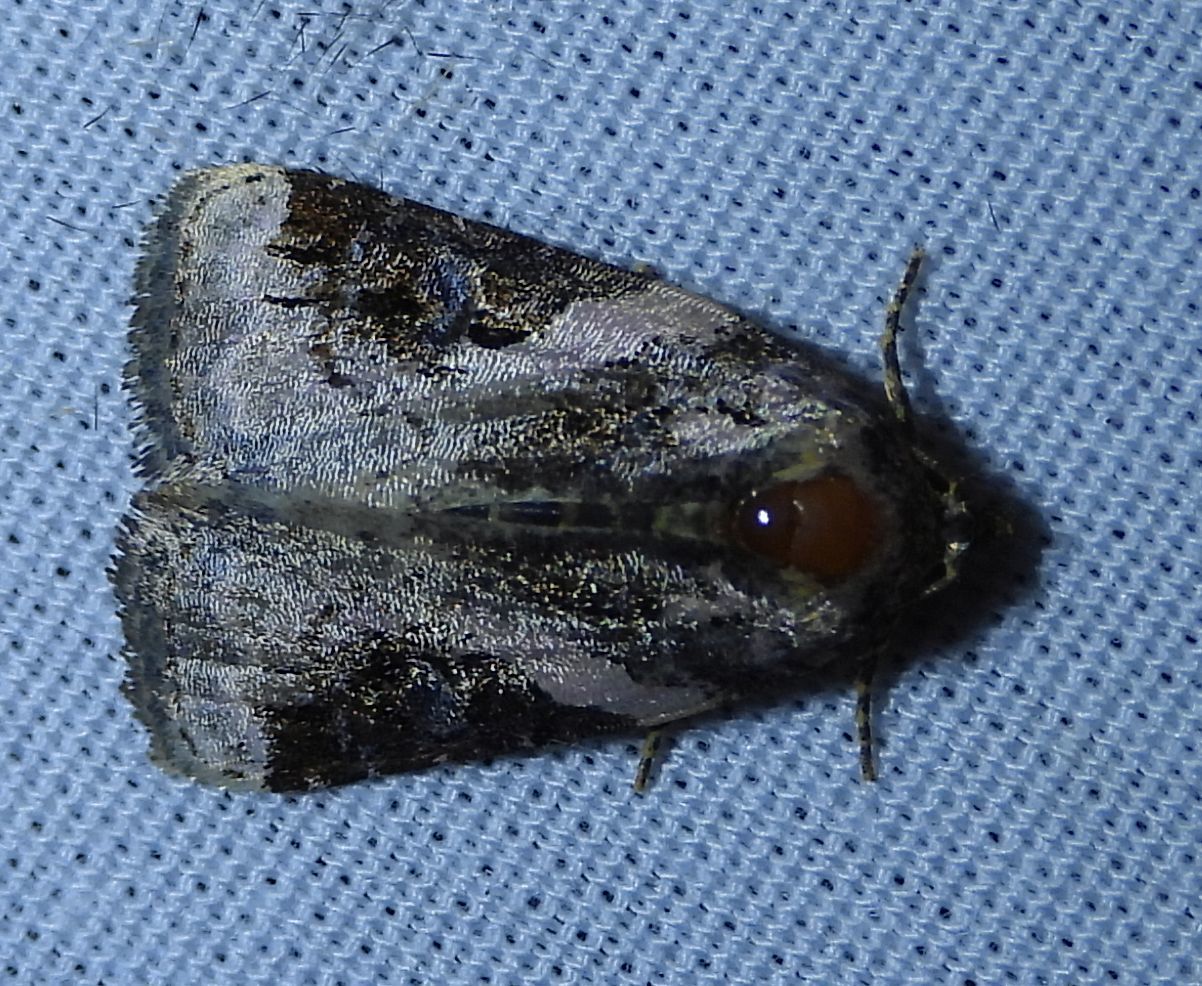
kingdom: Animalia
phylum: Arthropoda
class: Insecta
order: Lepidoptera
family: Noctuidae
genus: Pseudeustrotia
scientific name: Pseudeustrotia carneola
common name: Pink-barred lithacodia moth
